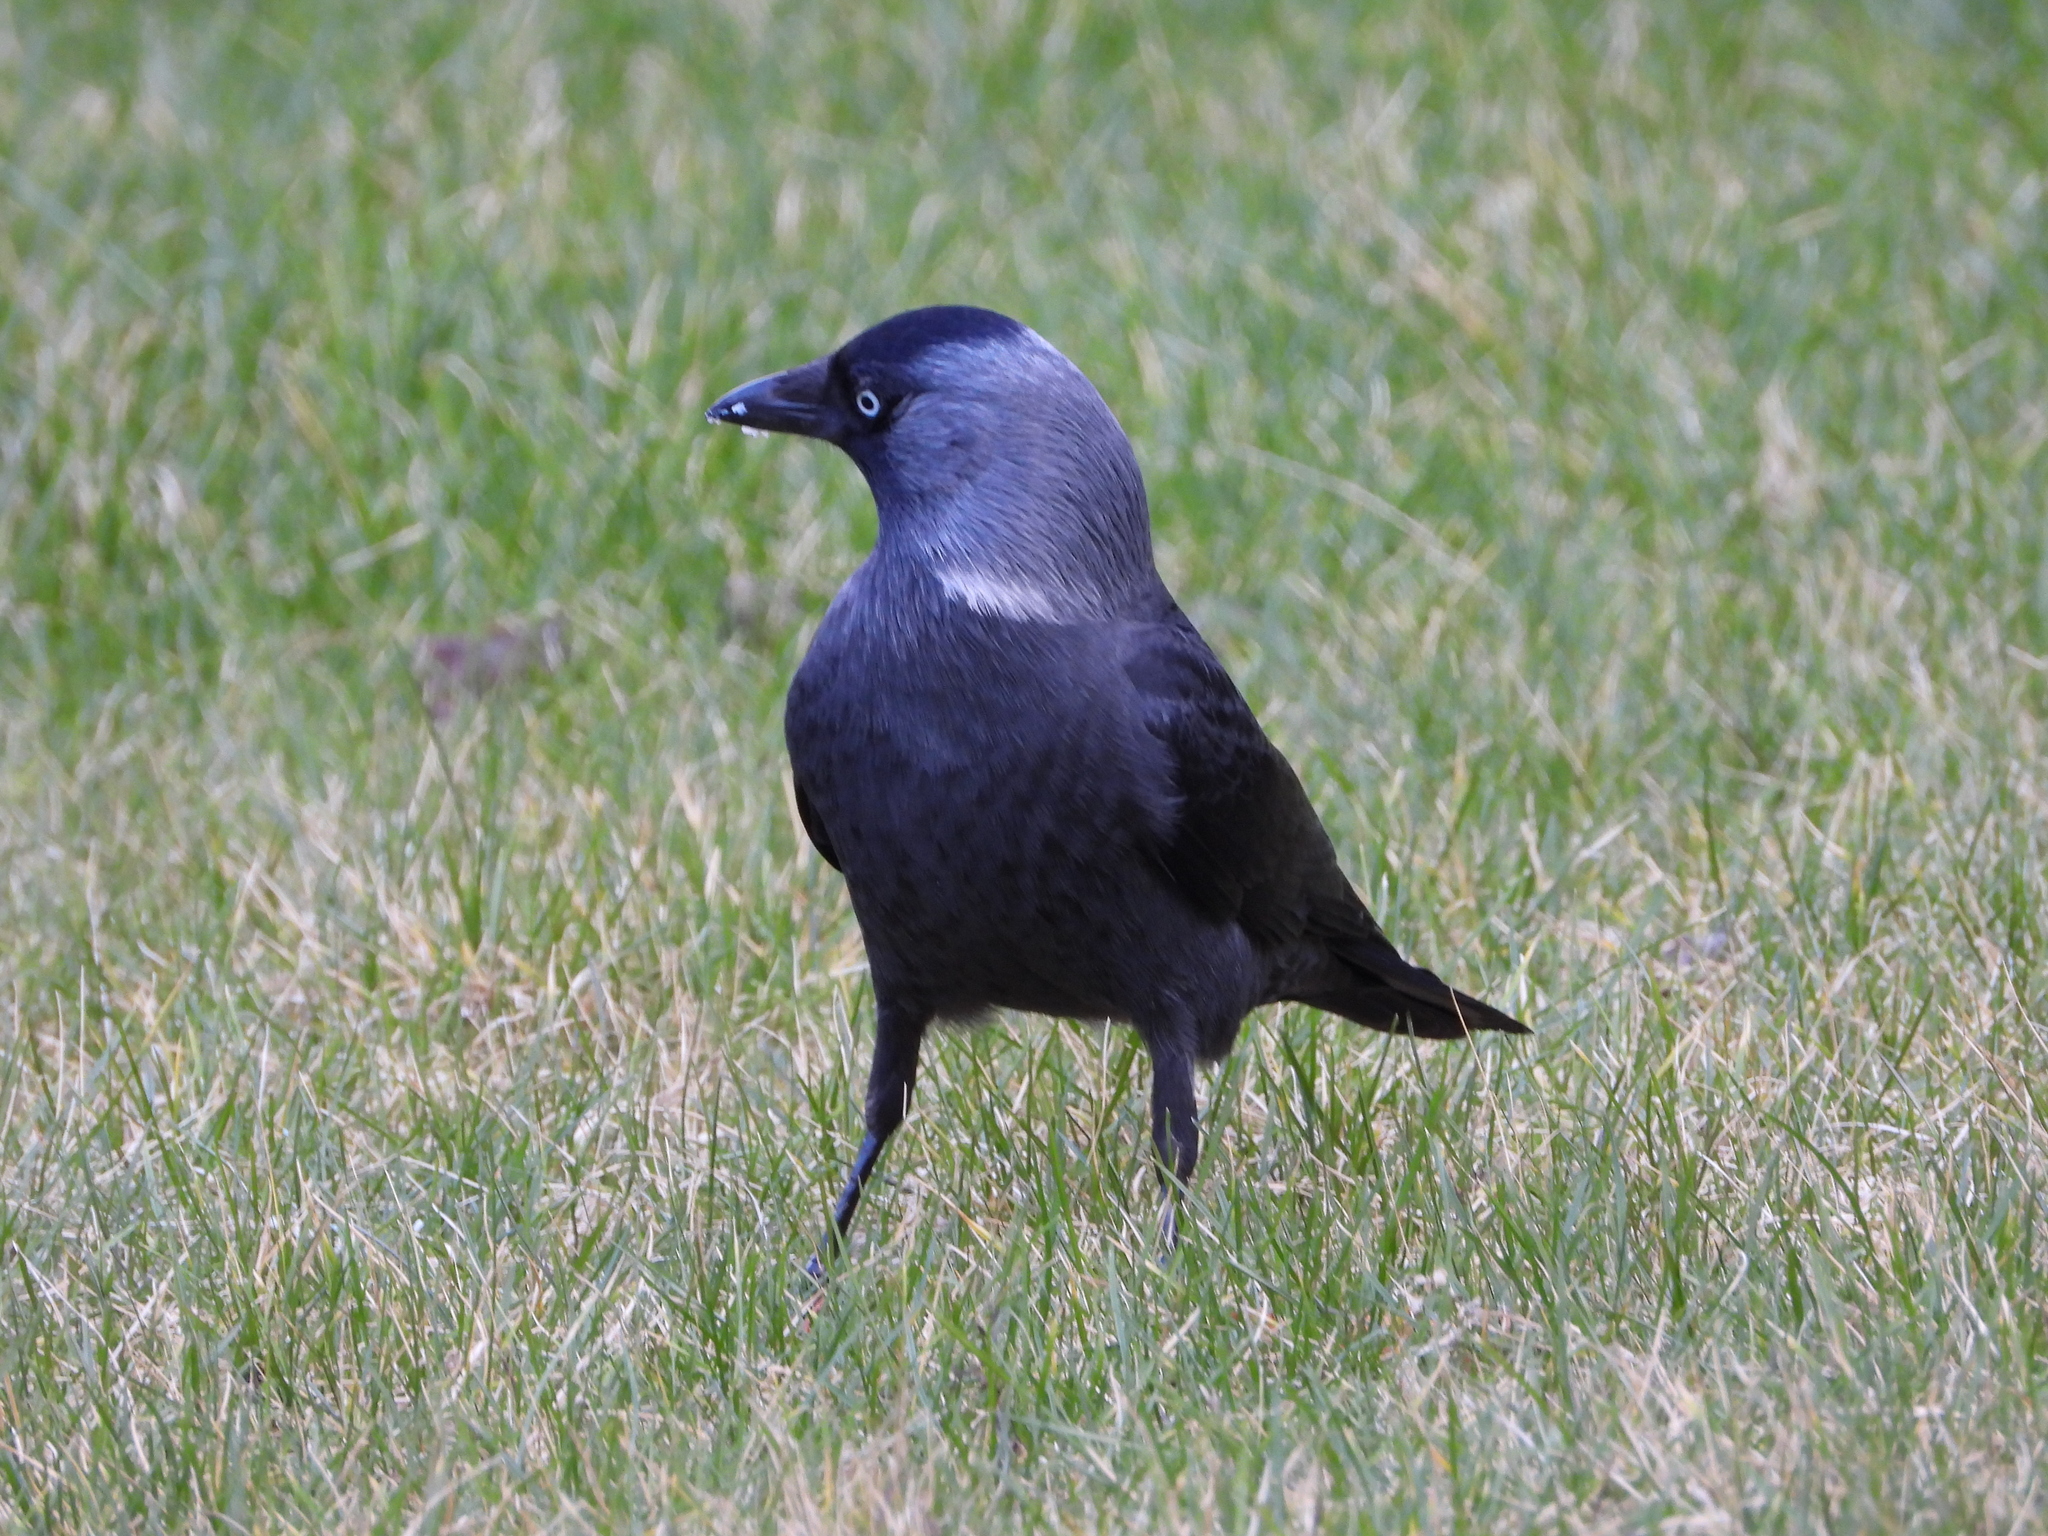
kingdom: Animalia
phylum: Chordata
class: Aves
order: Passeriformes
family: Corvidae
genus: Coloeus
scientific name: Coloeus monedula
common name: Western jackdaw
